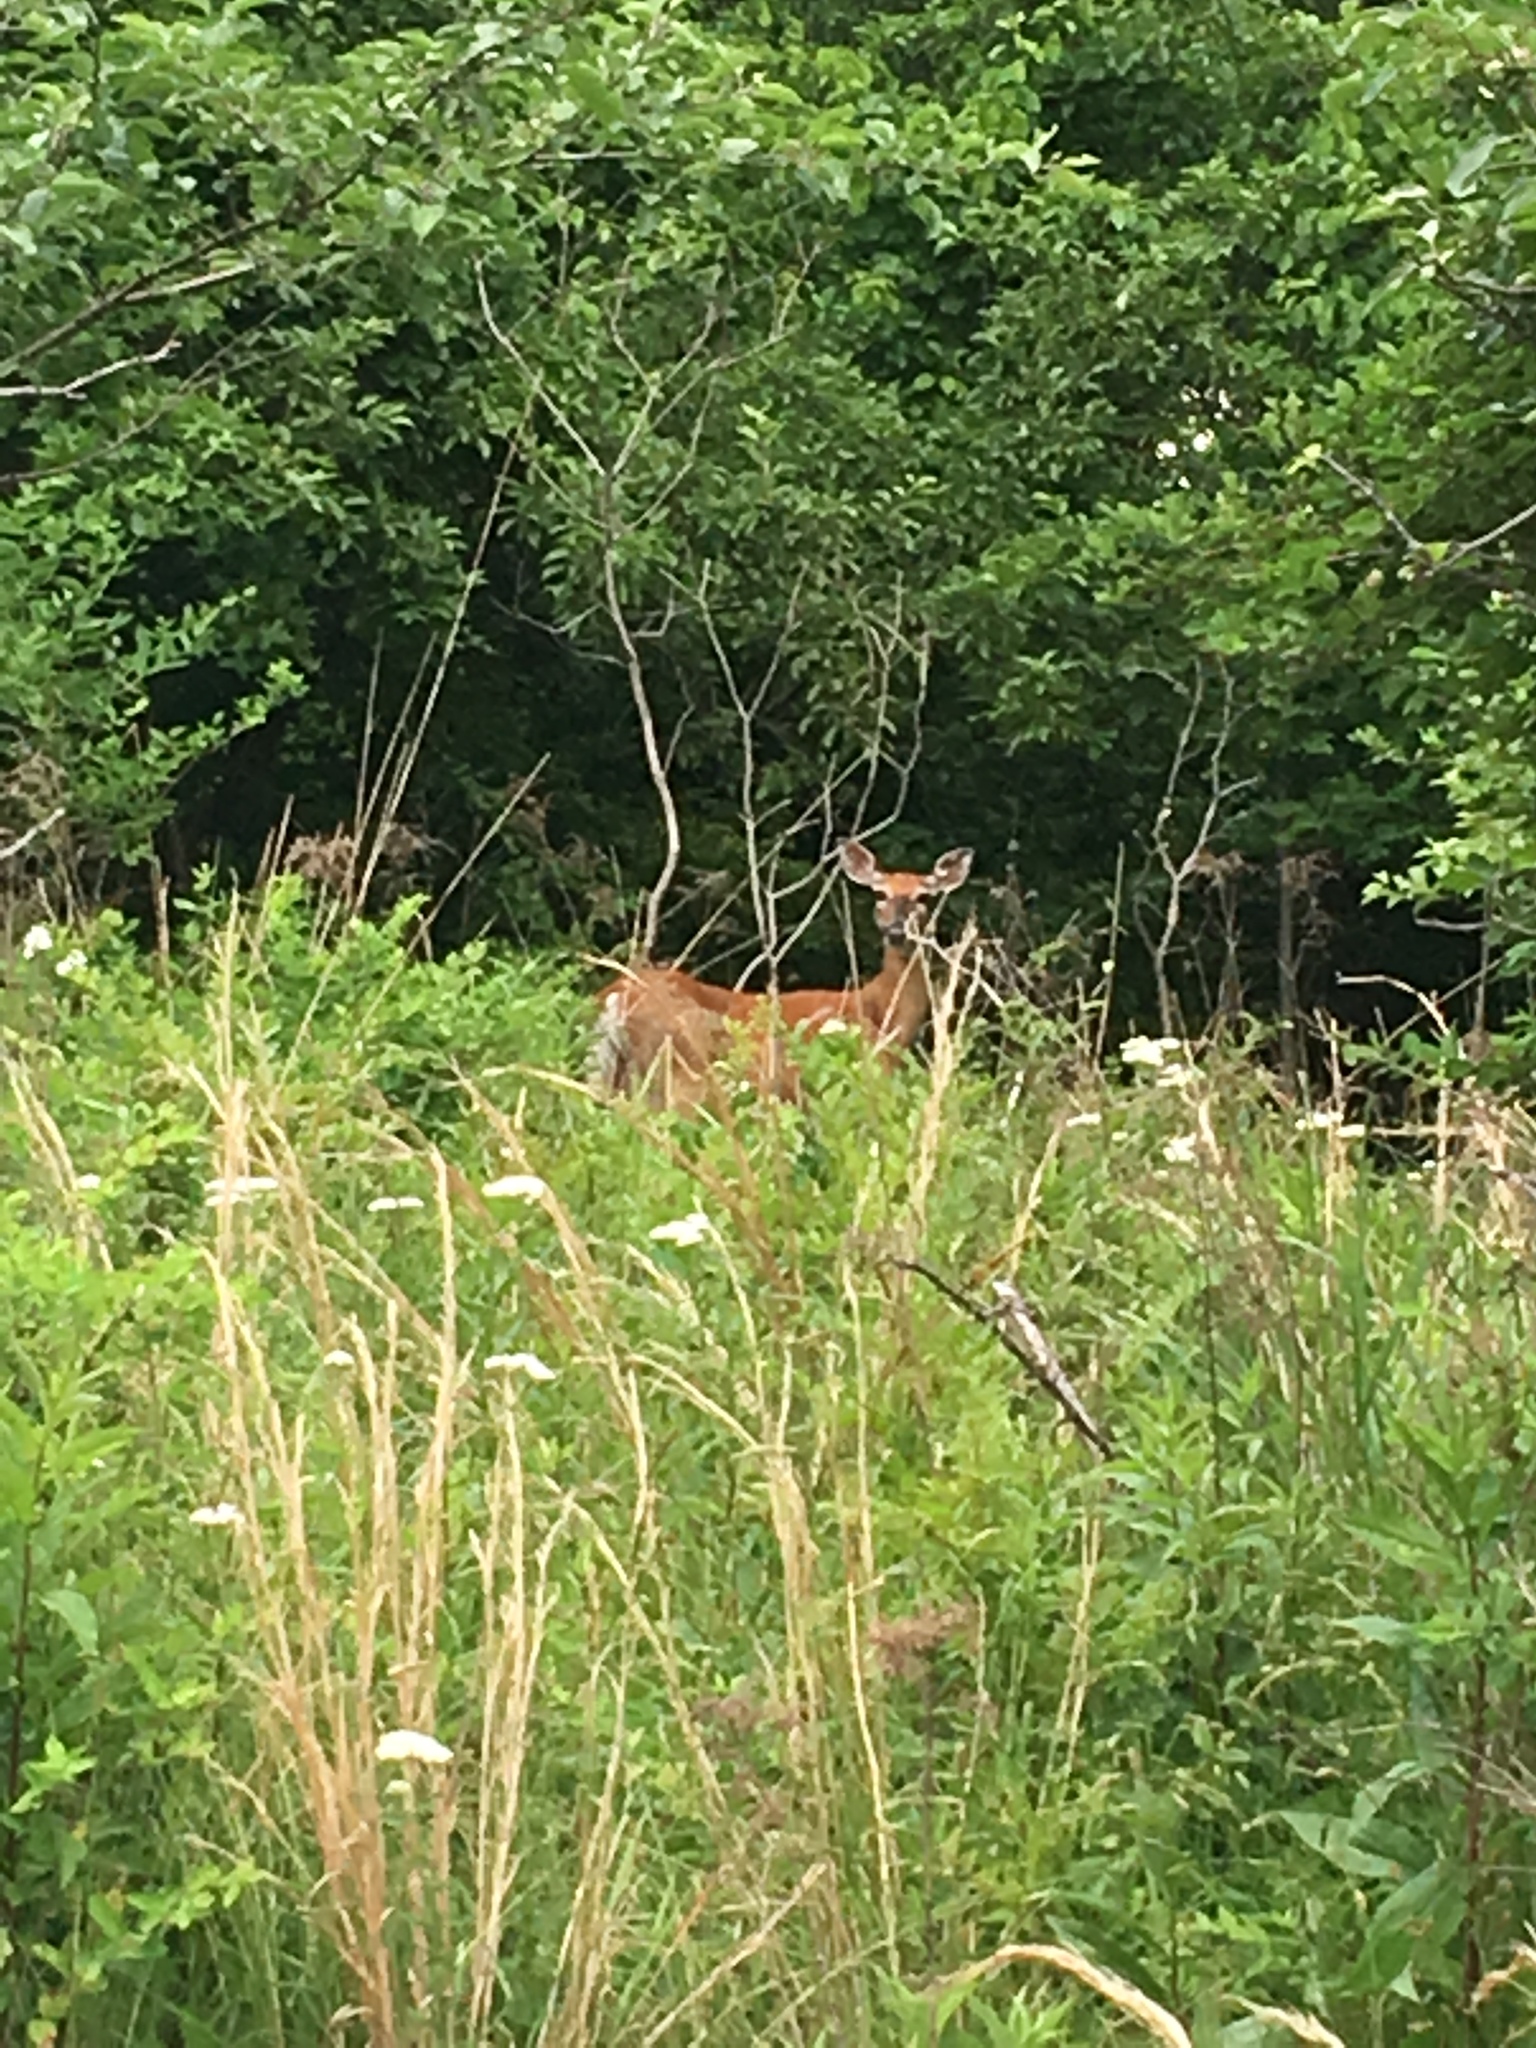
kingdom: Animalia
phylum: Chordata
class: Mammalia
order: Artiodactyla
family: Cervidae
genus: Odocoileus
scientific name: Odocoileus virginianus
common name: White-tailed deer
